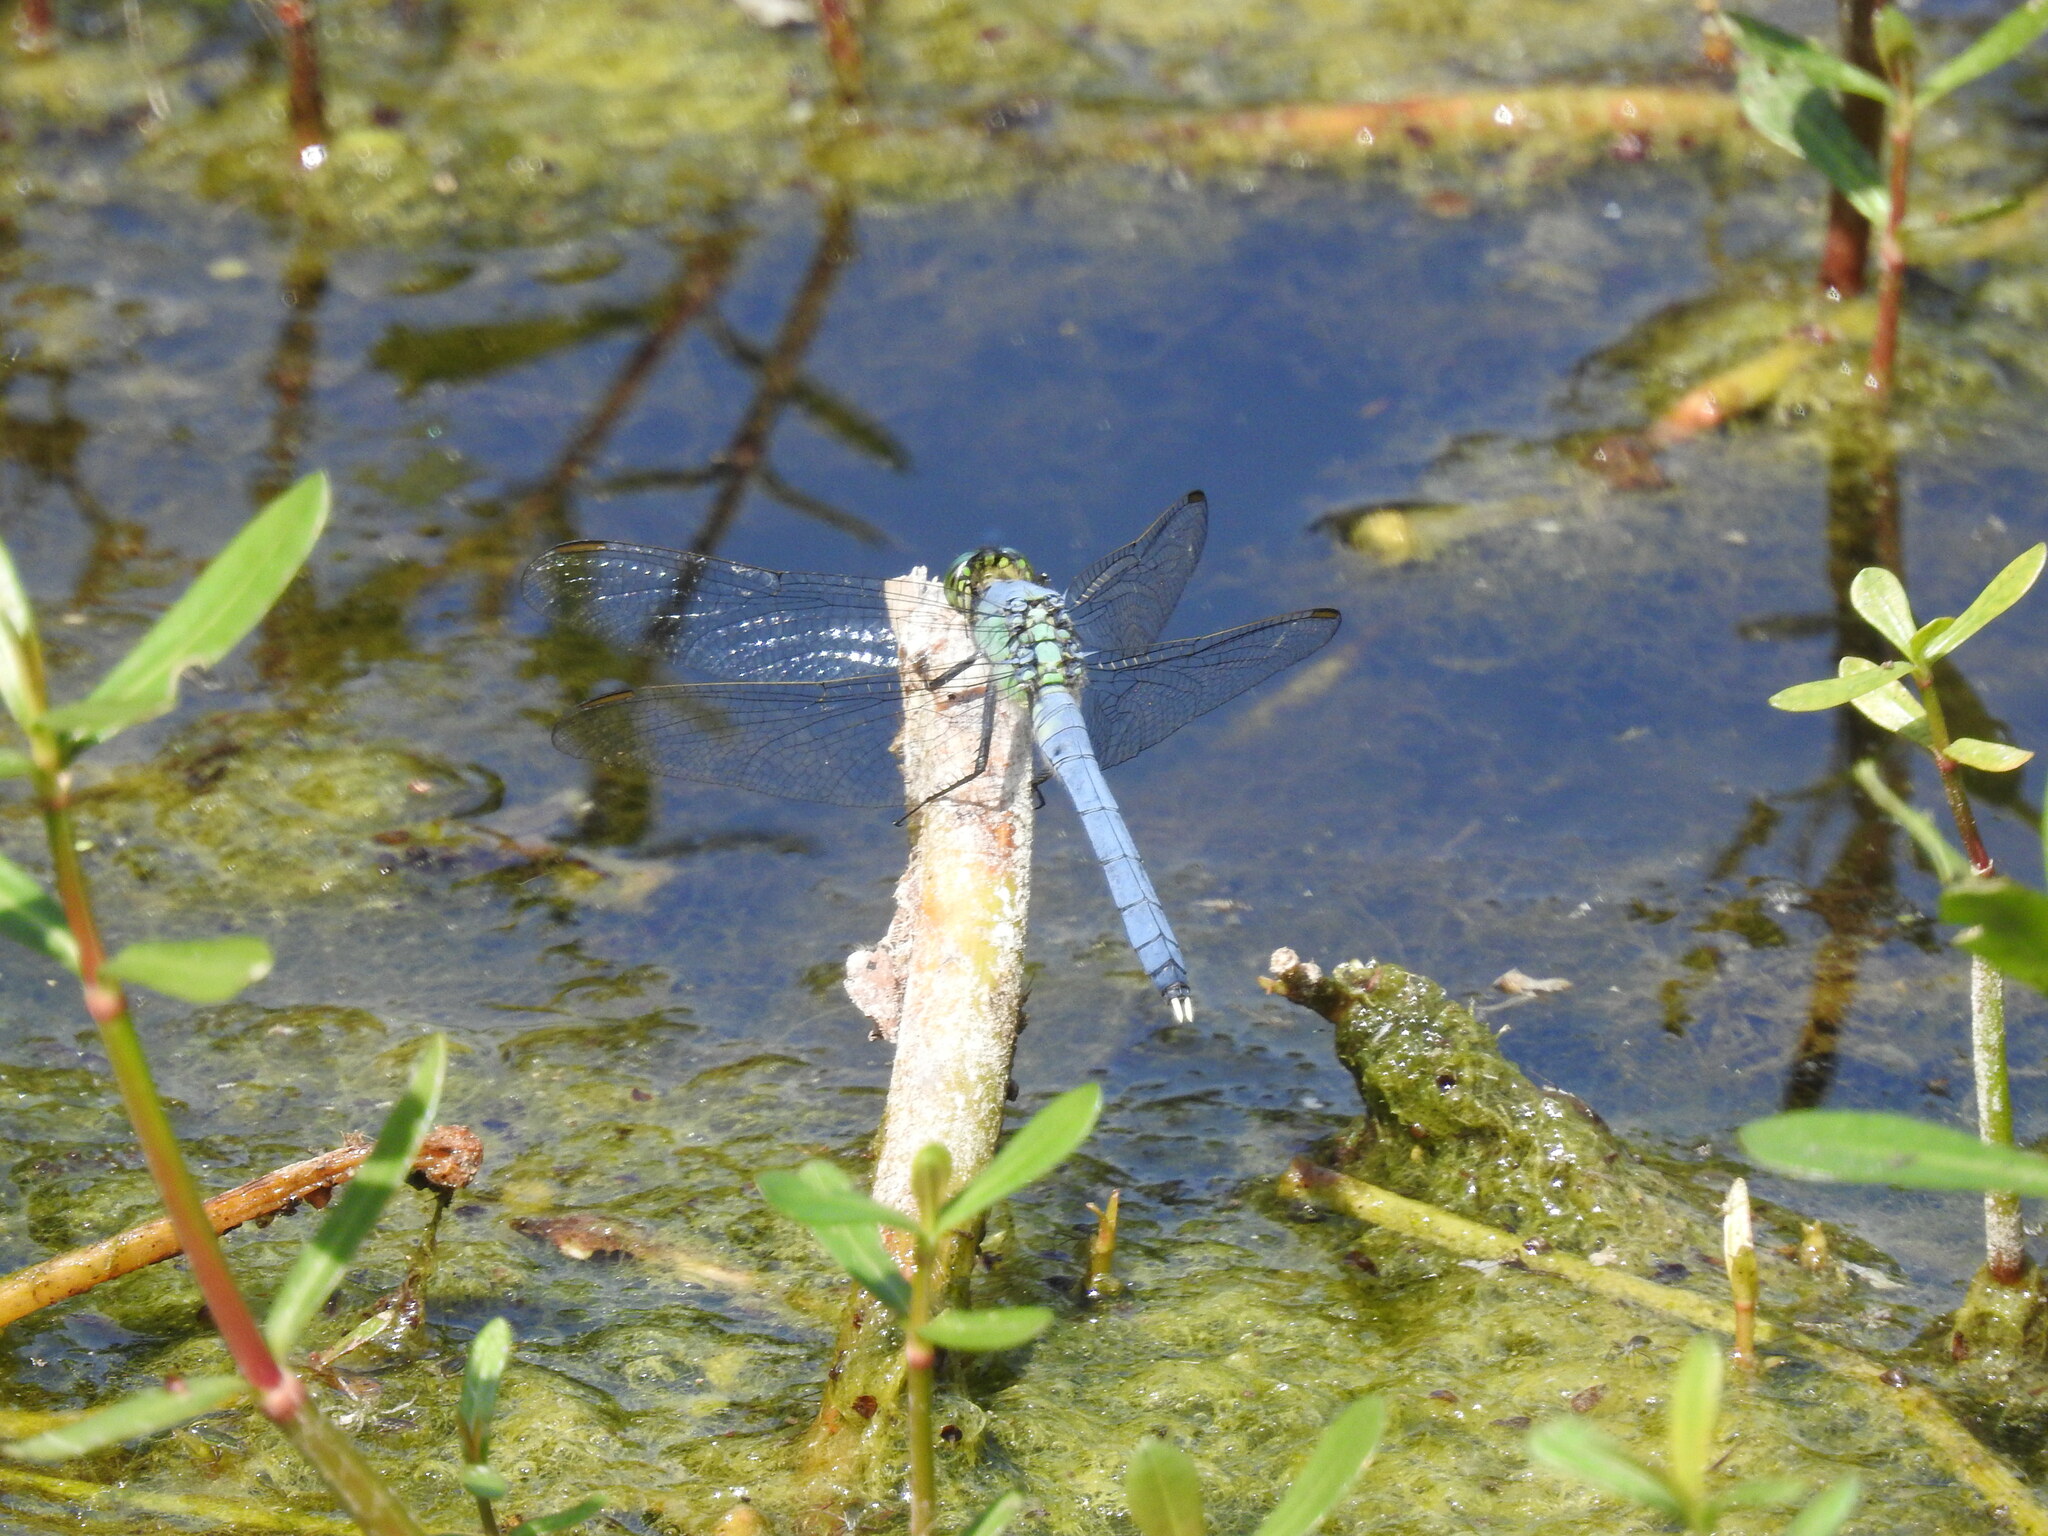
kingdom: Animalia
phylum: Arthropoda
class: Insecta
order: Odonata
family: Libellulidae
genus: Erythemis
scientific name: Erythemis simplicicollis
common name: Eastern pondhawk
